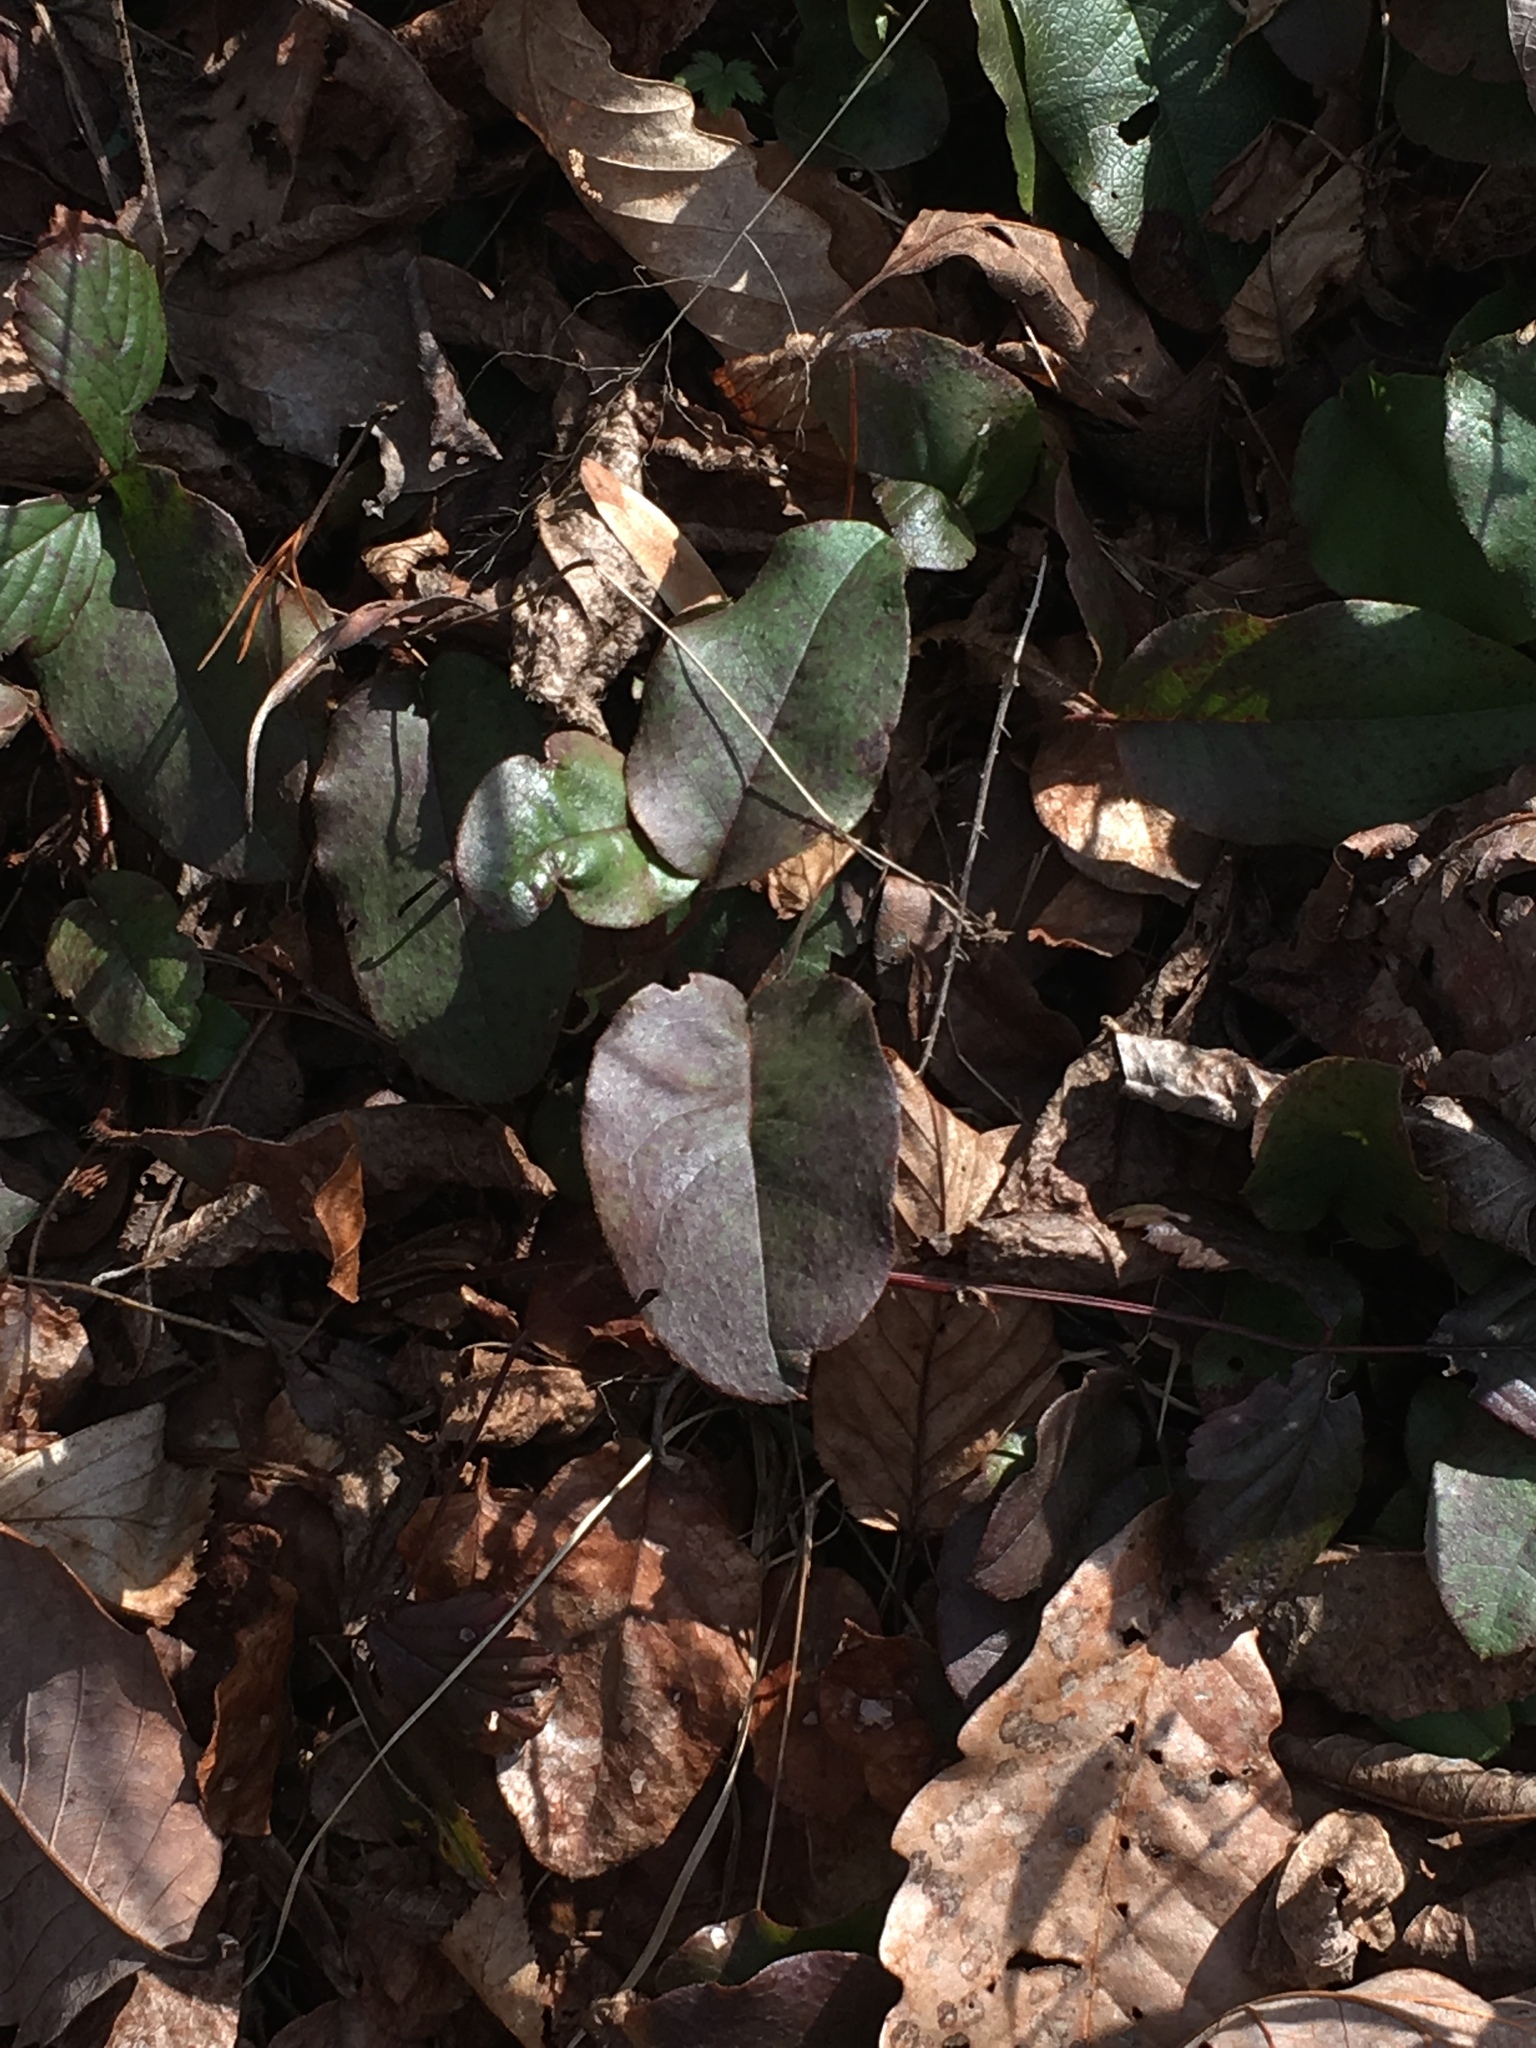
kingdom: Plantae
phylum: Tracheophyta
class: Magnoliopsida
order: Ericales
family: Ericaceae
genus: Epigaea
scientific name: Epigaea repens
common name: Gravelroot
